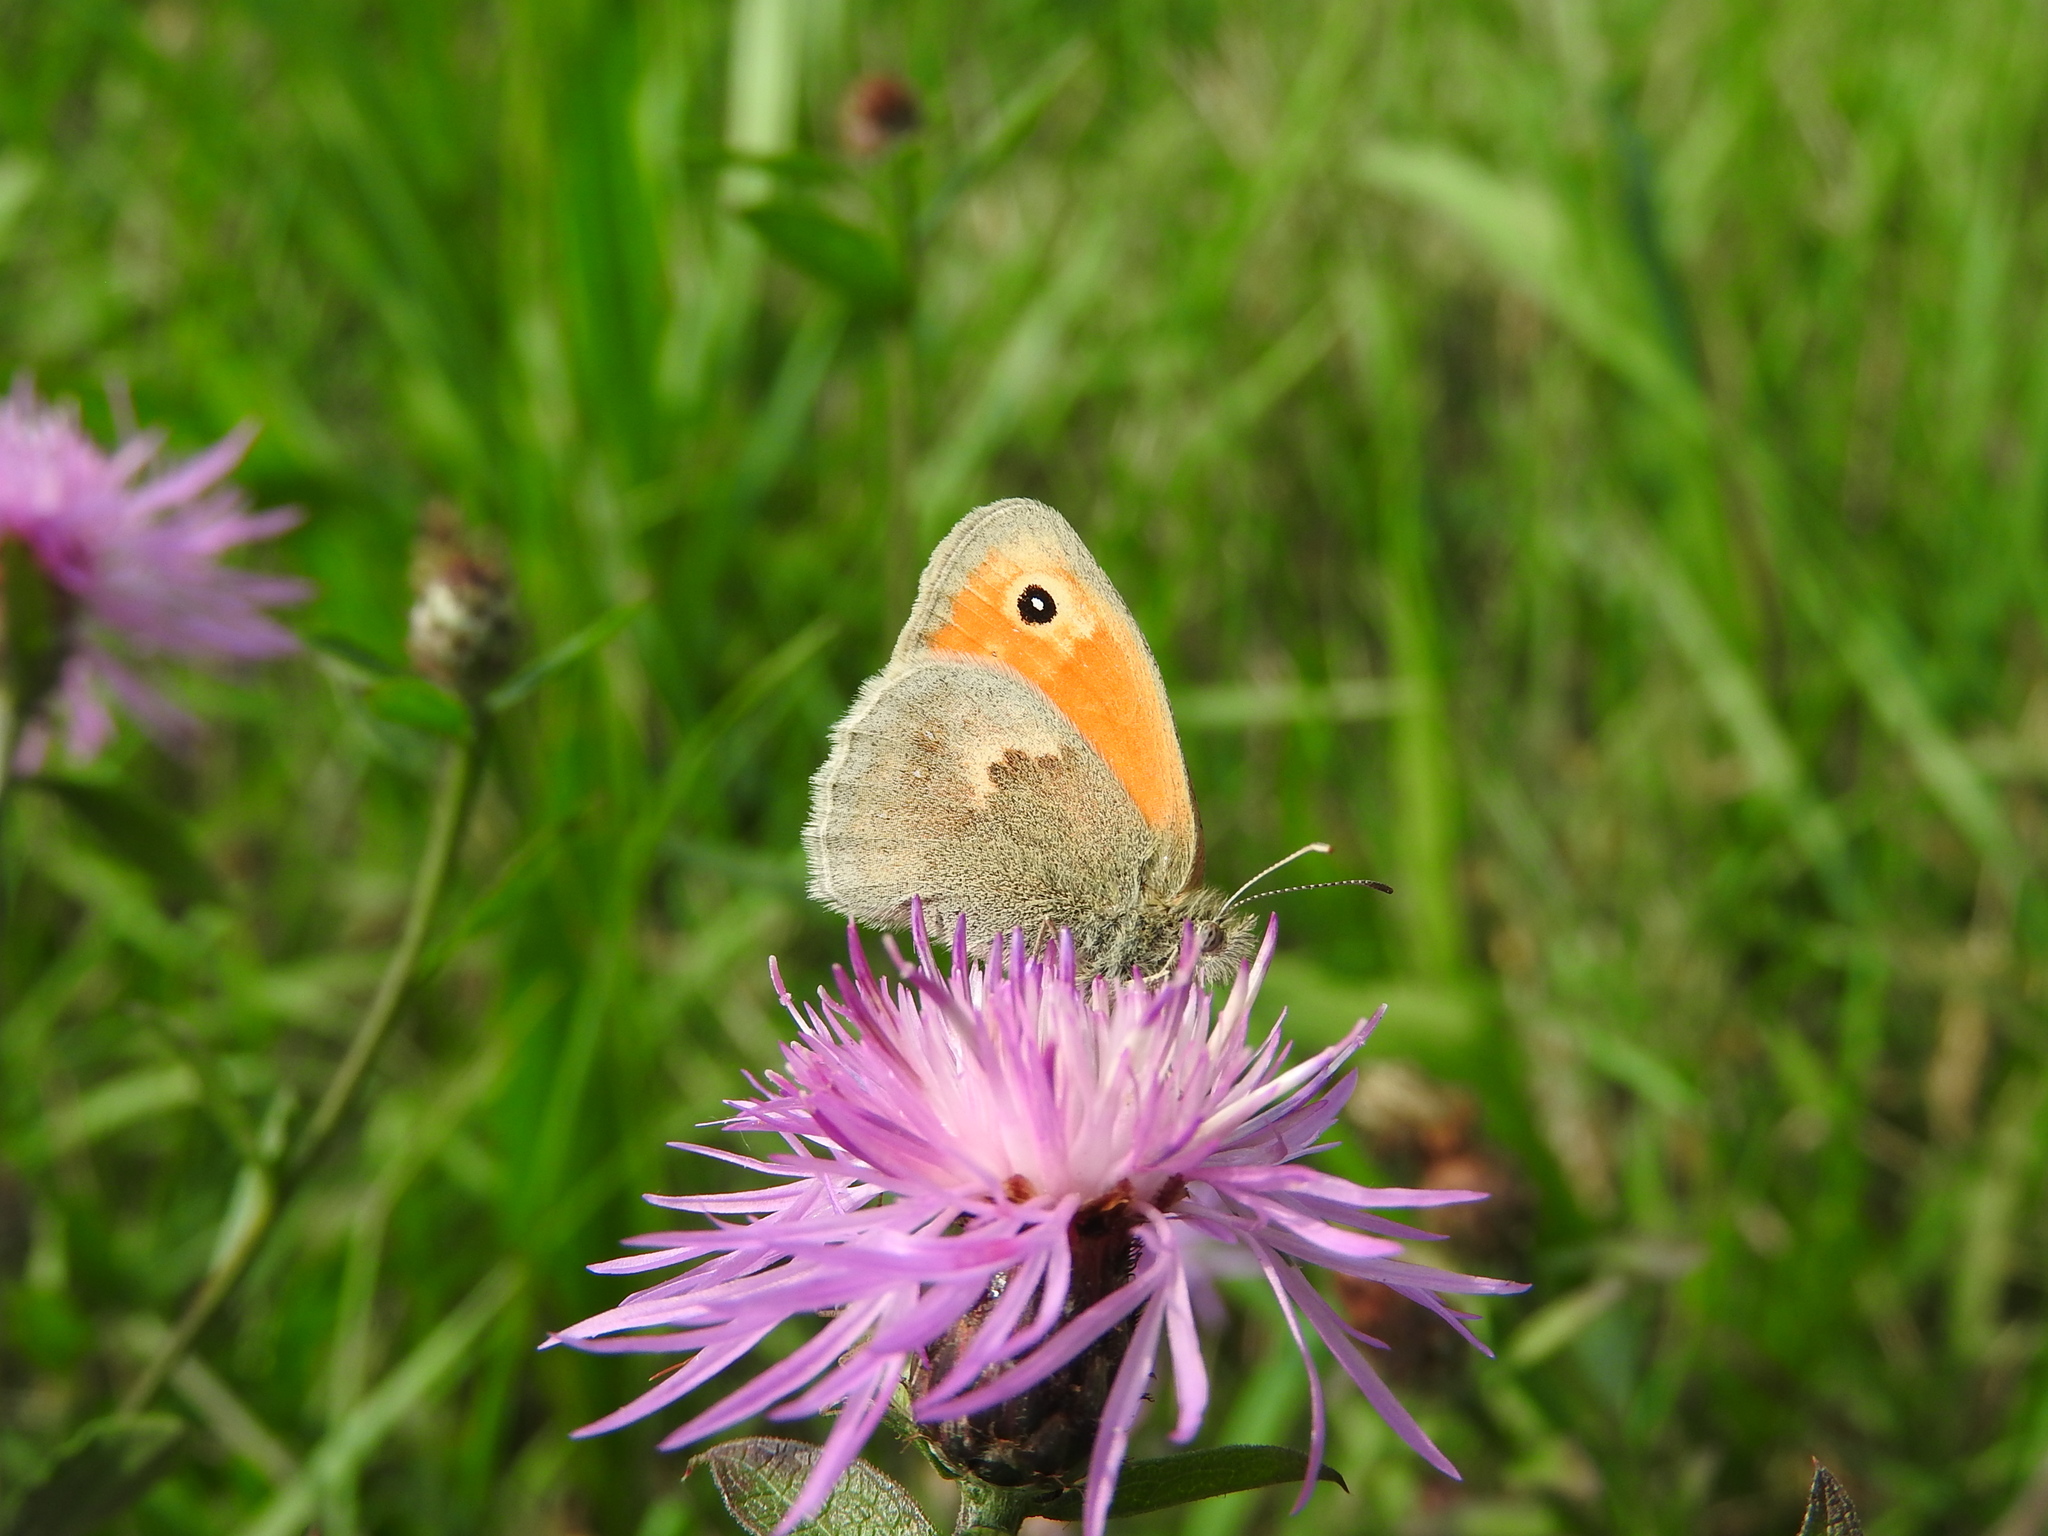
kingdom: Animalia
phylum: Arthropoda
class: Insecta
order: Lepidoptera
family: Nymphalidae
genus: Coenonympha
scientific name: Coenonympha pamphilus
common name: Small heath
